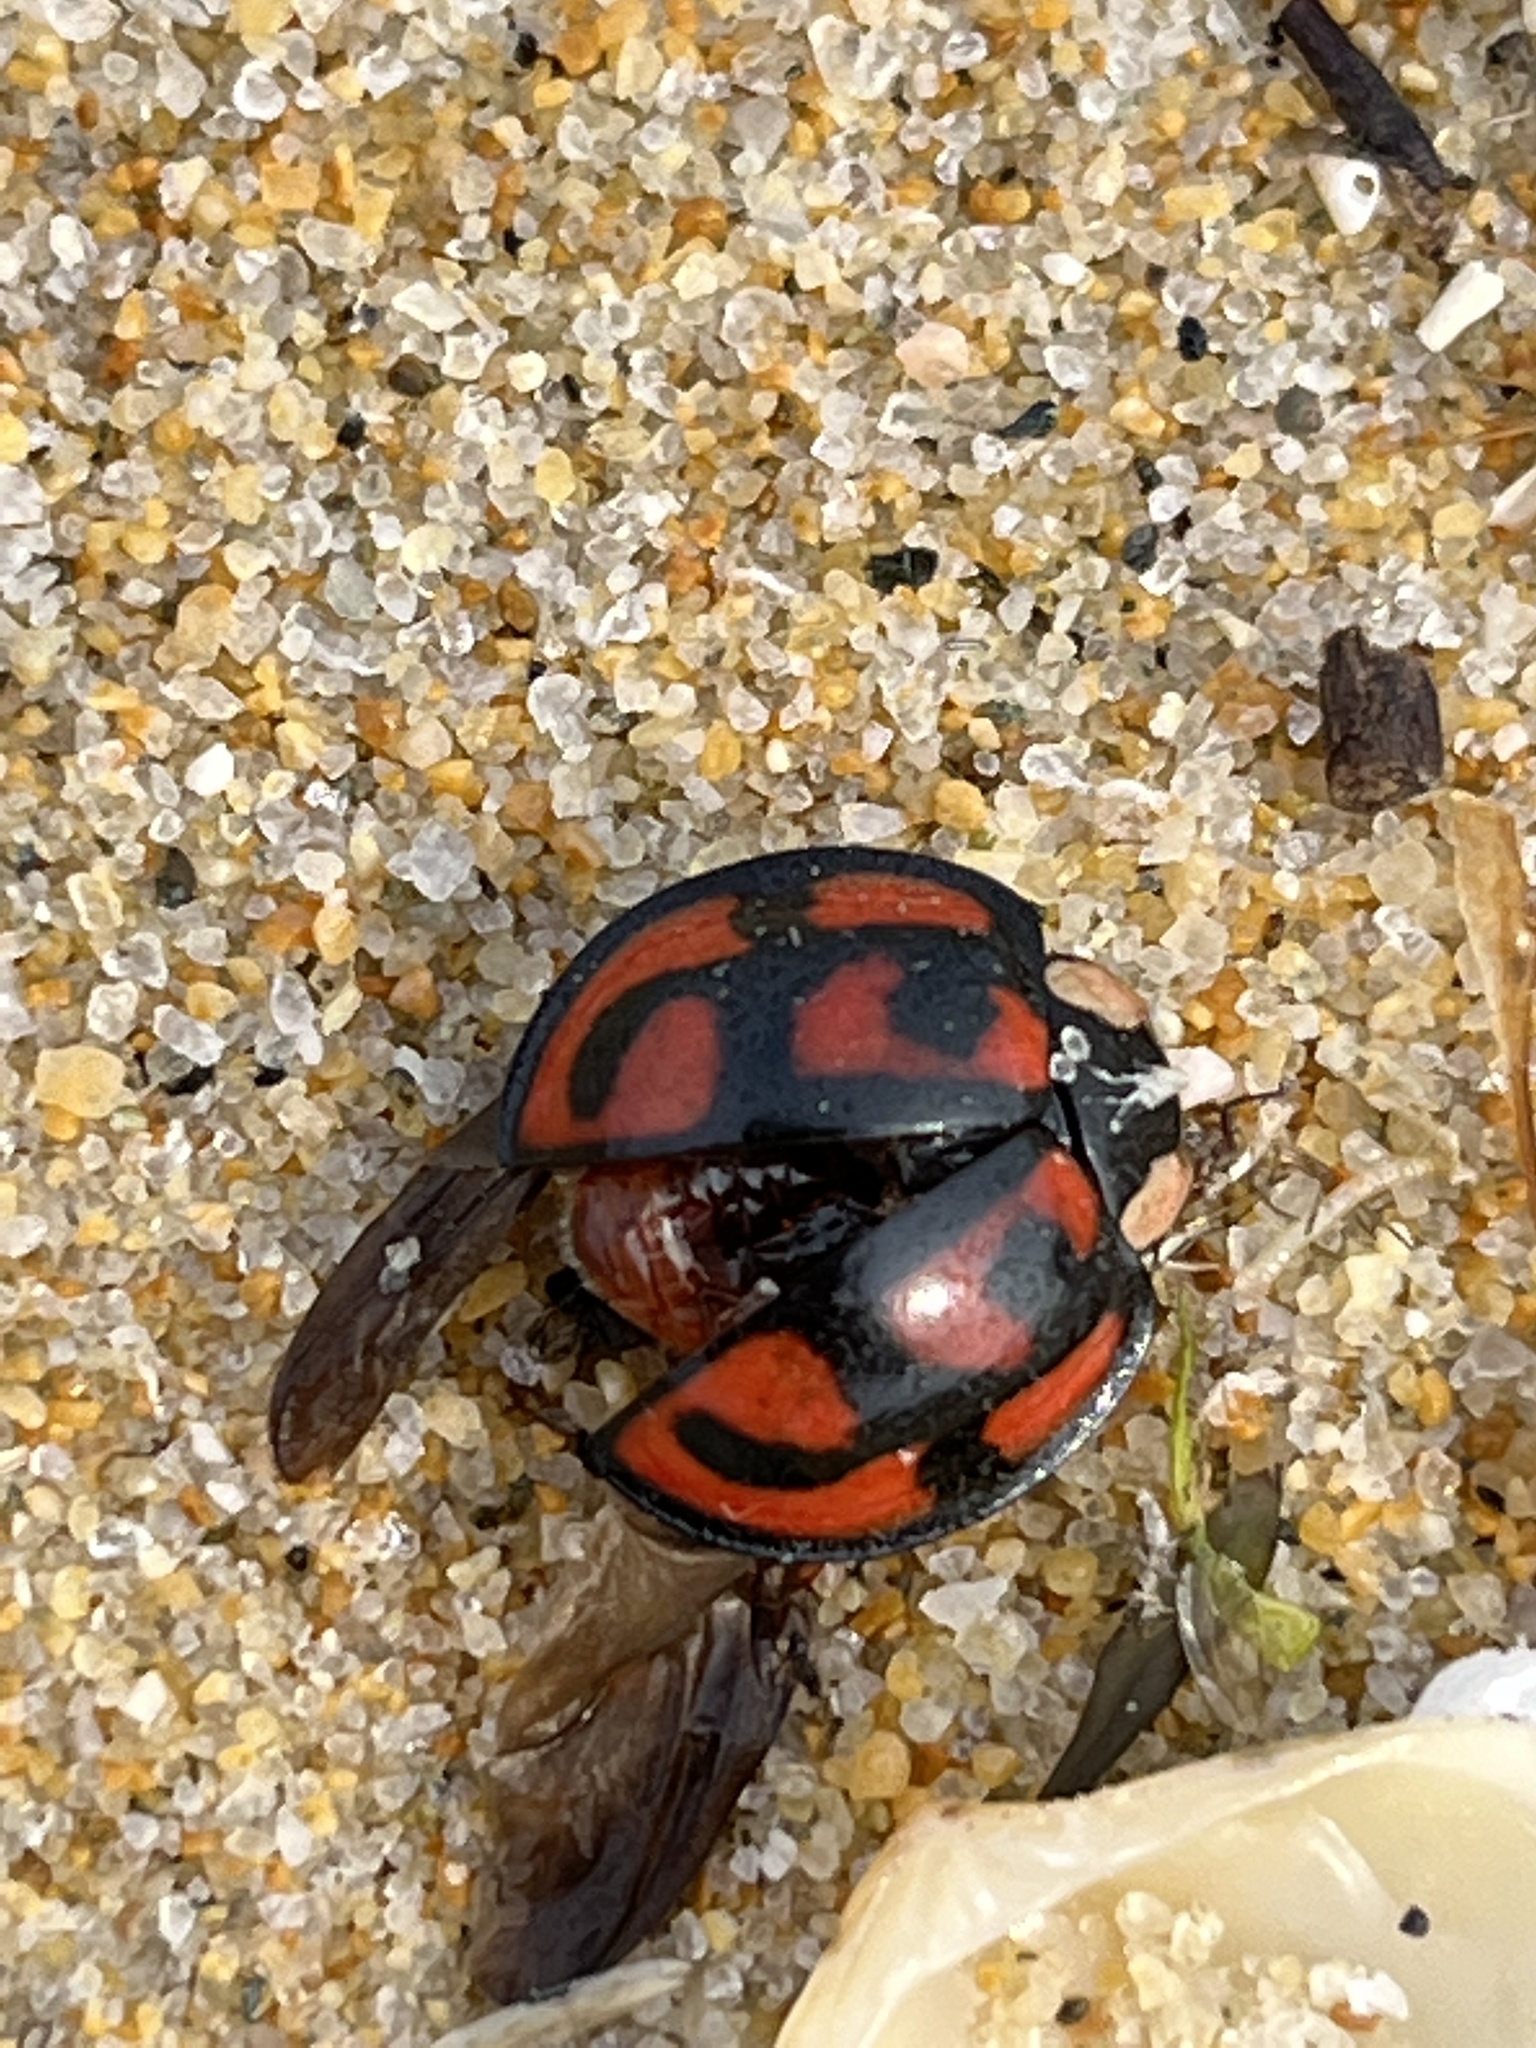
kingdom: Animalia
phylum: Arthropoda
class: Insecta
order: Coleoptera
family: Coccinellidae
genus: Aiolocaria
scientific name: Aiolocaria hexaspilota
